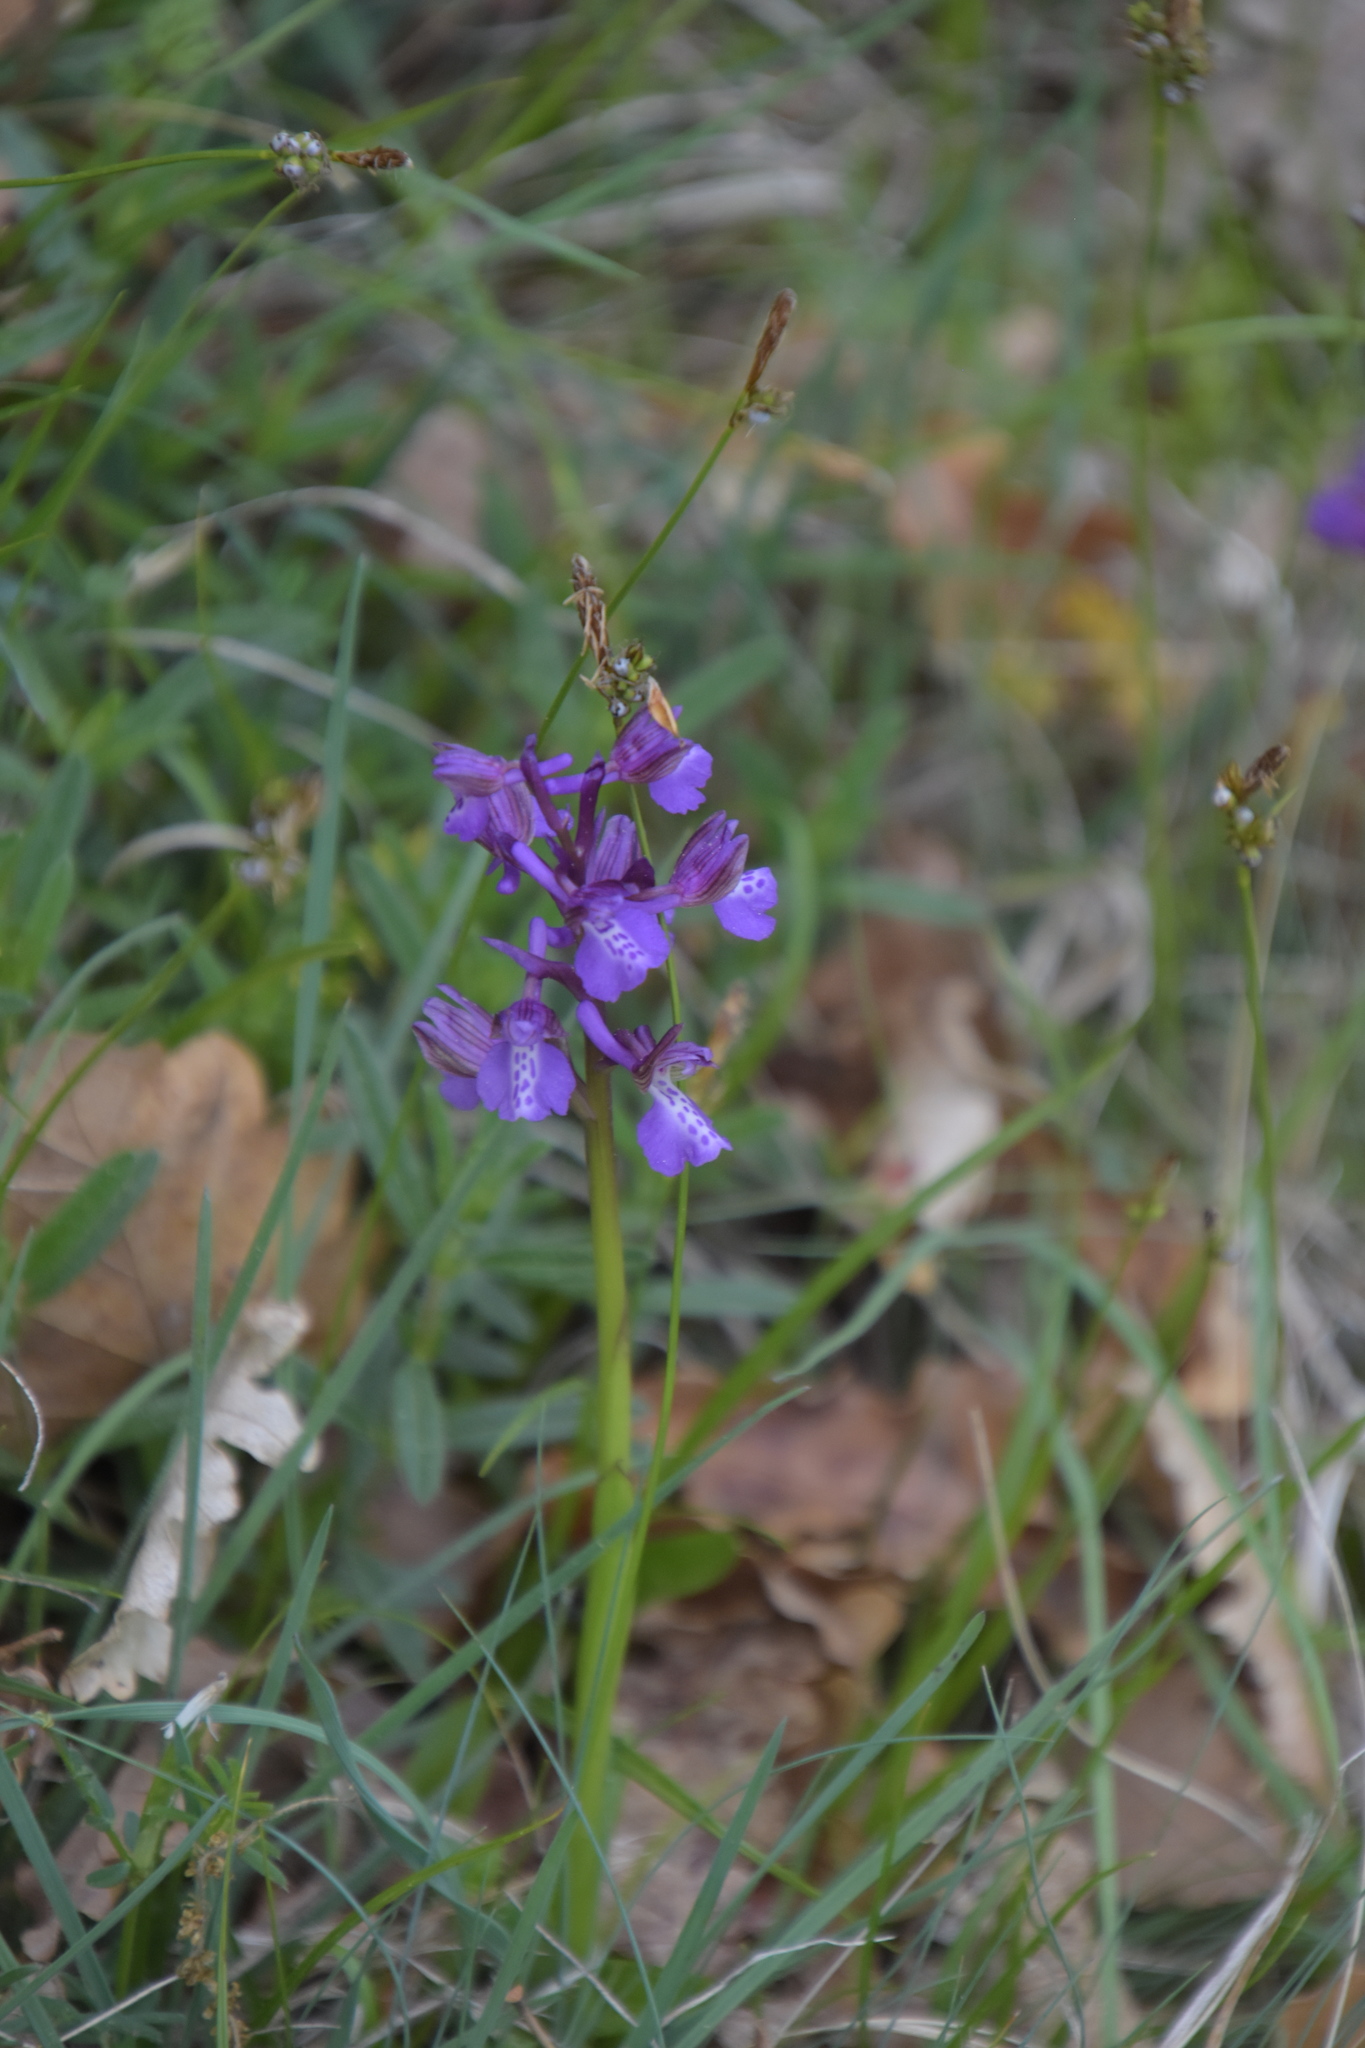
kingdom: Plantae
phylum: Tracheophyta
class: Liliopsida
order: Asparagales
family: Orchidaceae
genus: Anacamptis
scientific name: Anacamptis morio
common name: Green-winged orchid
